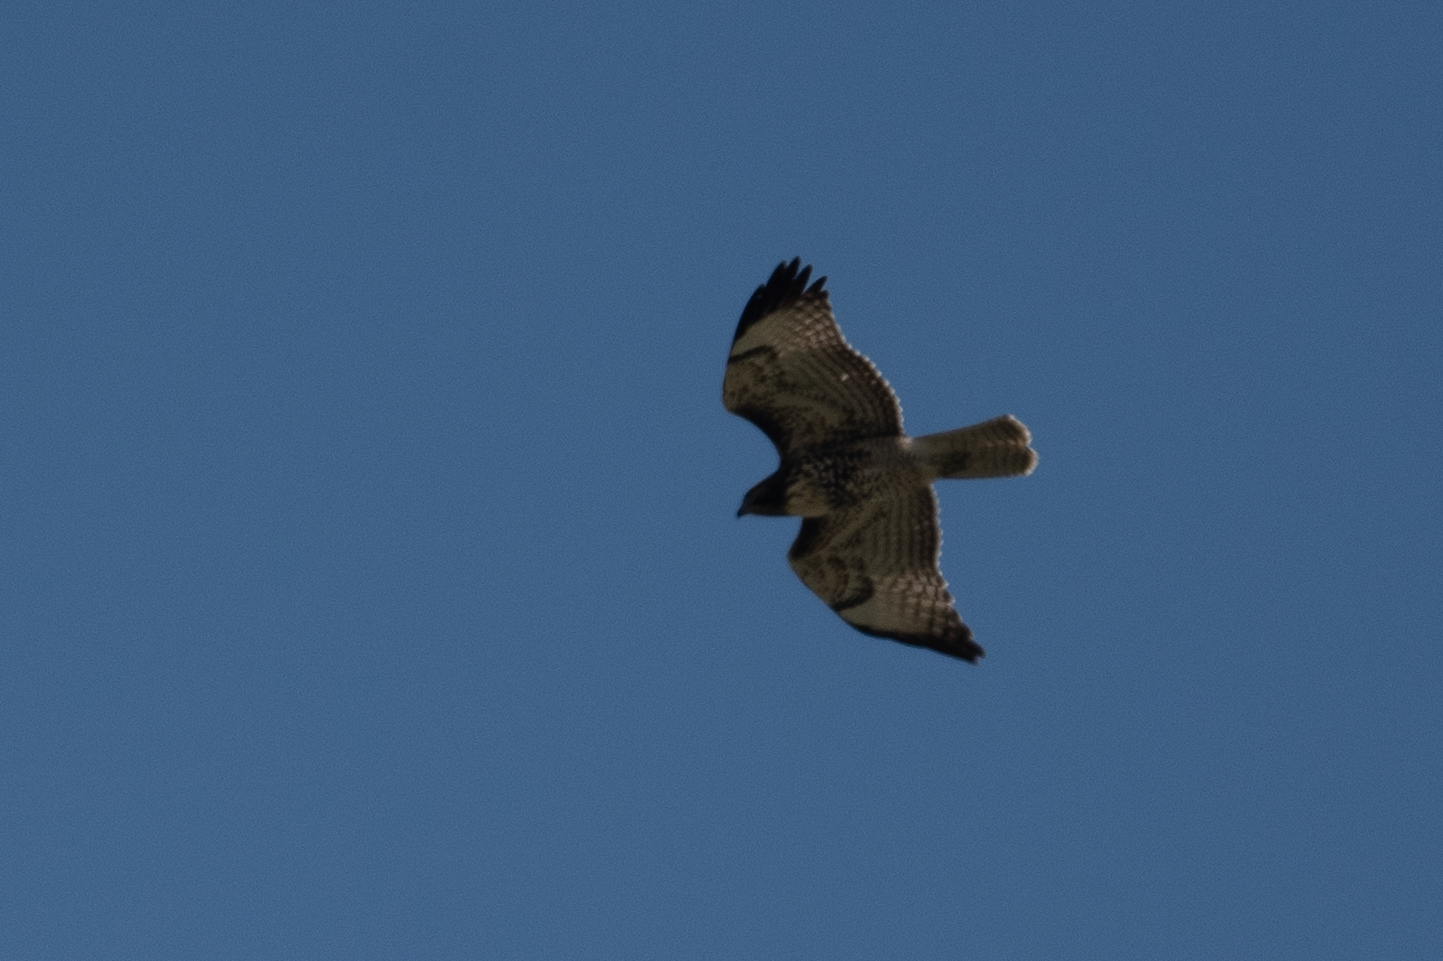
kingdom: Animalia
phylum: Chordata
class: Aves
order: Accipitriformes
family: Accipitridae
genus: Buteo
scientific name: Buteo jamaicensis
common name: Red-tailed hawk
